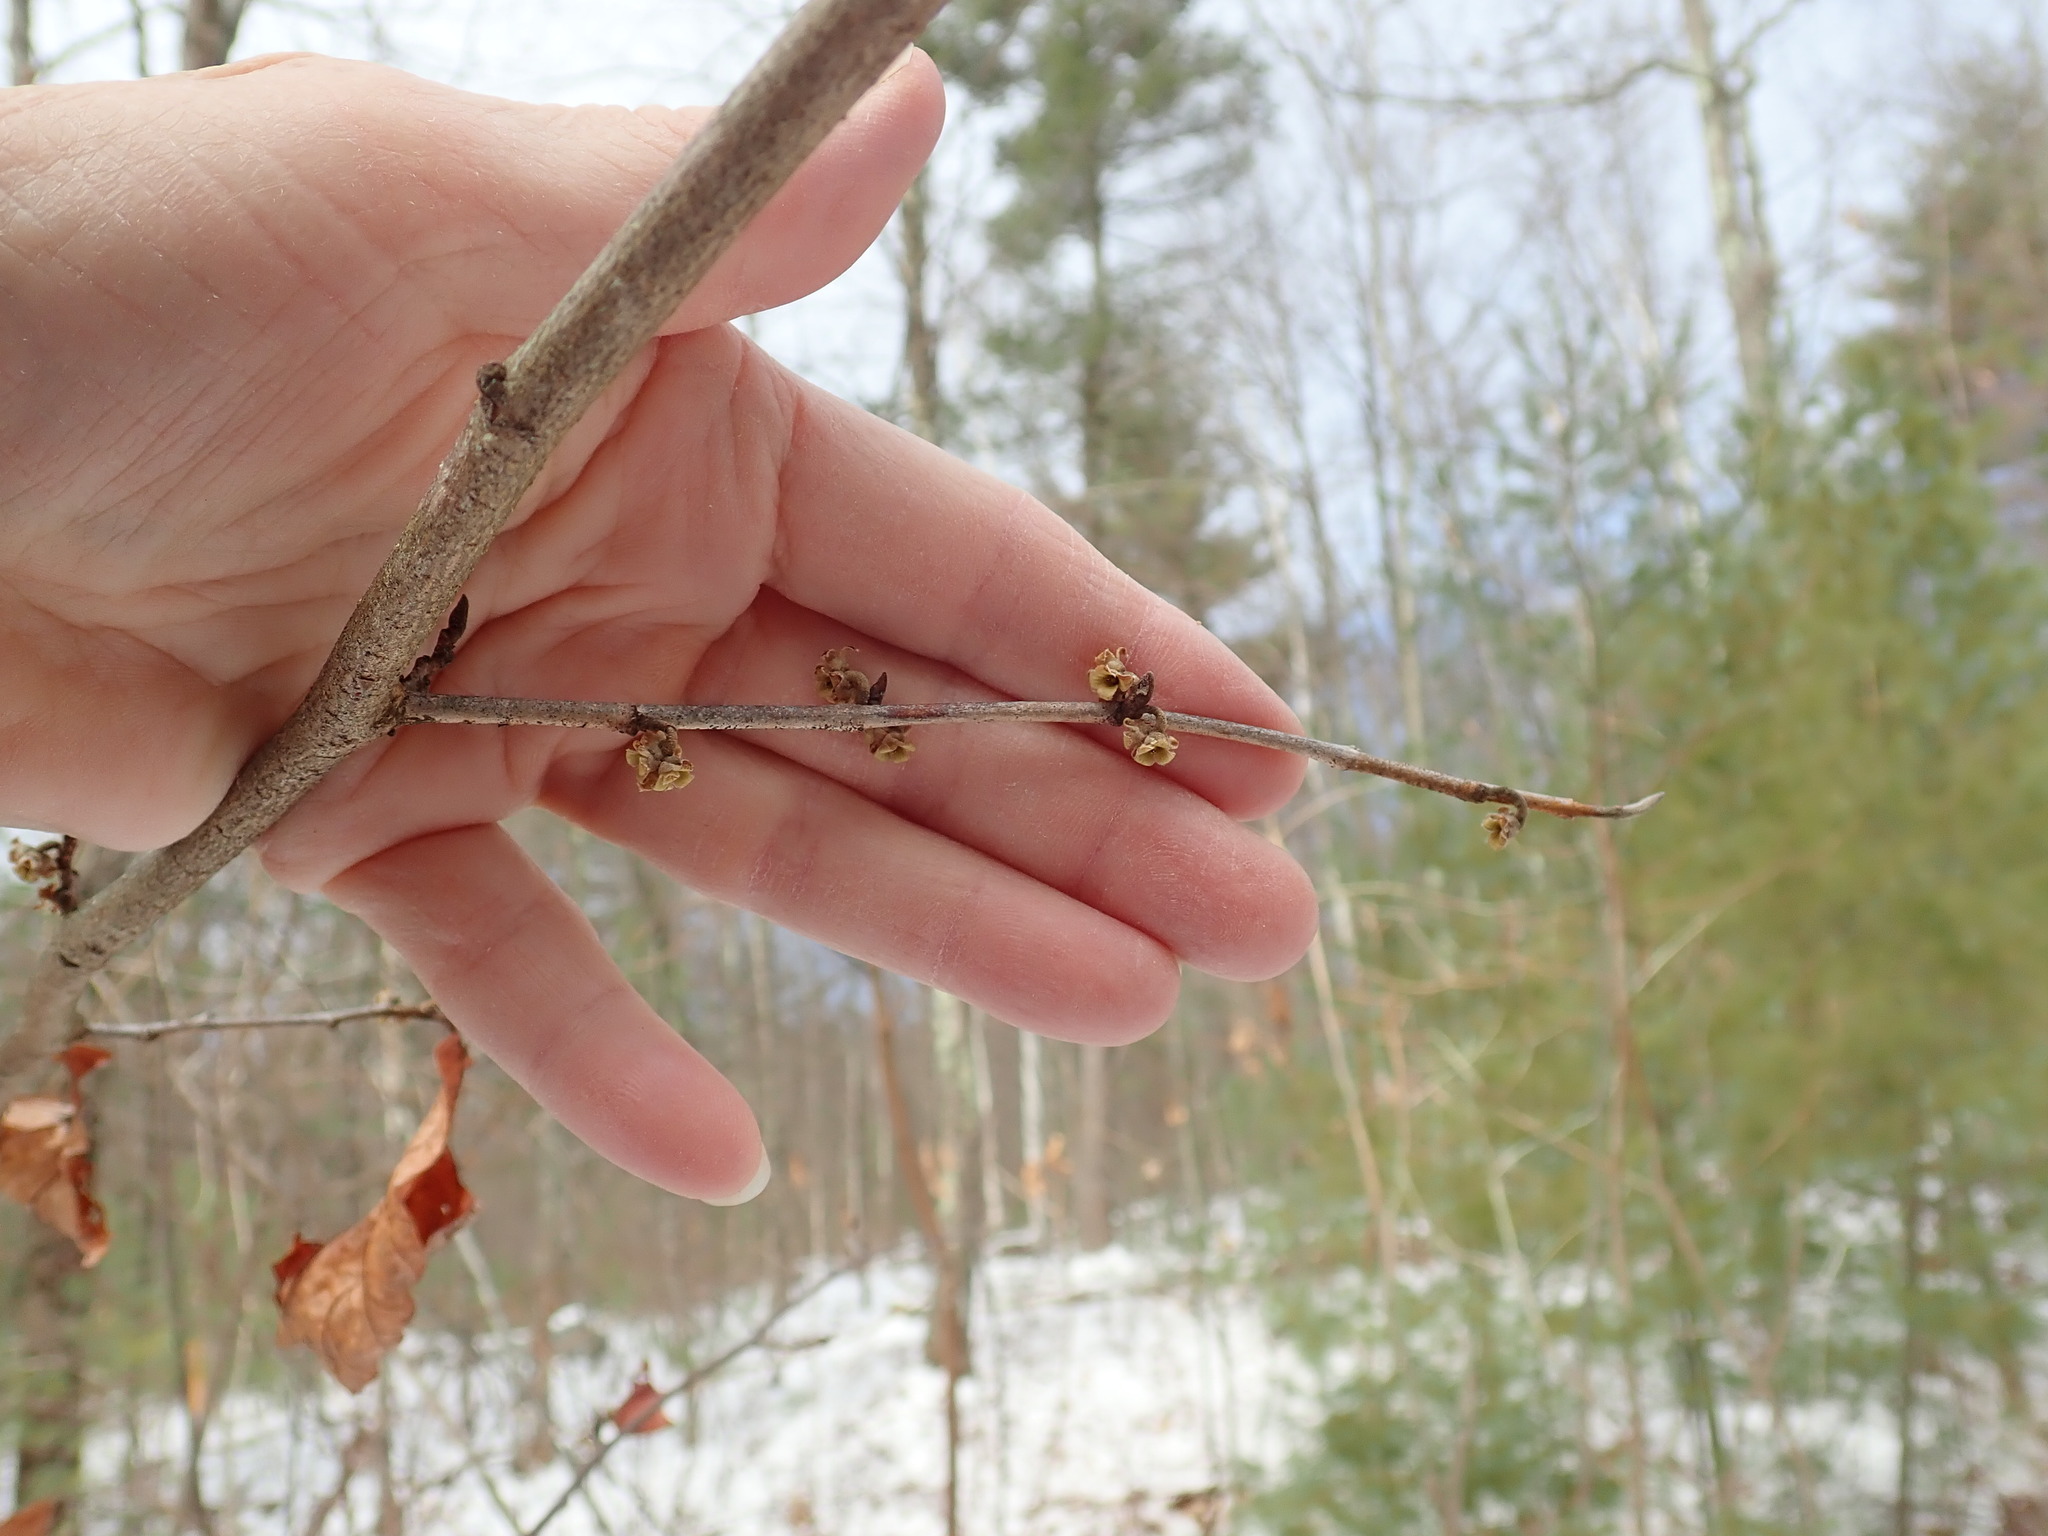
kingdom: Plantae
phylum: Tracheophyta
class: Magnoliopsida
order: Saxifragales
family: Hamamelidaceae
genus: Hamamelis
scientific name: Hamamelis virginiana
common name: Witch-hazel
